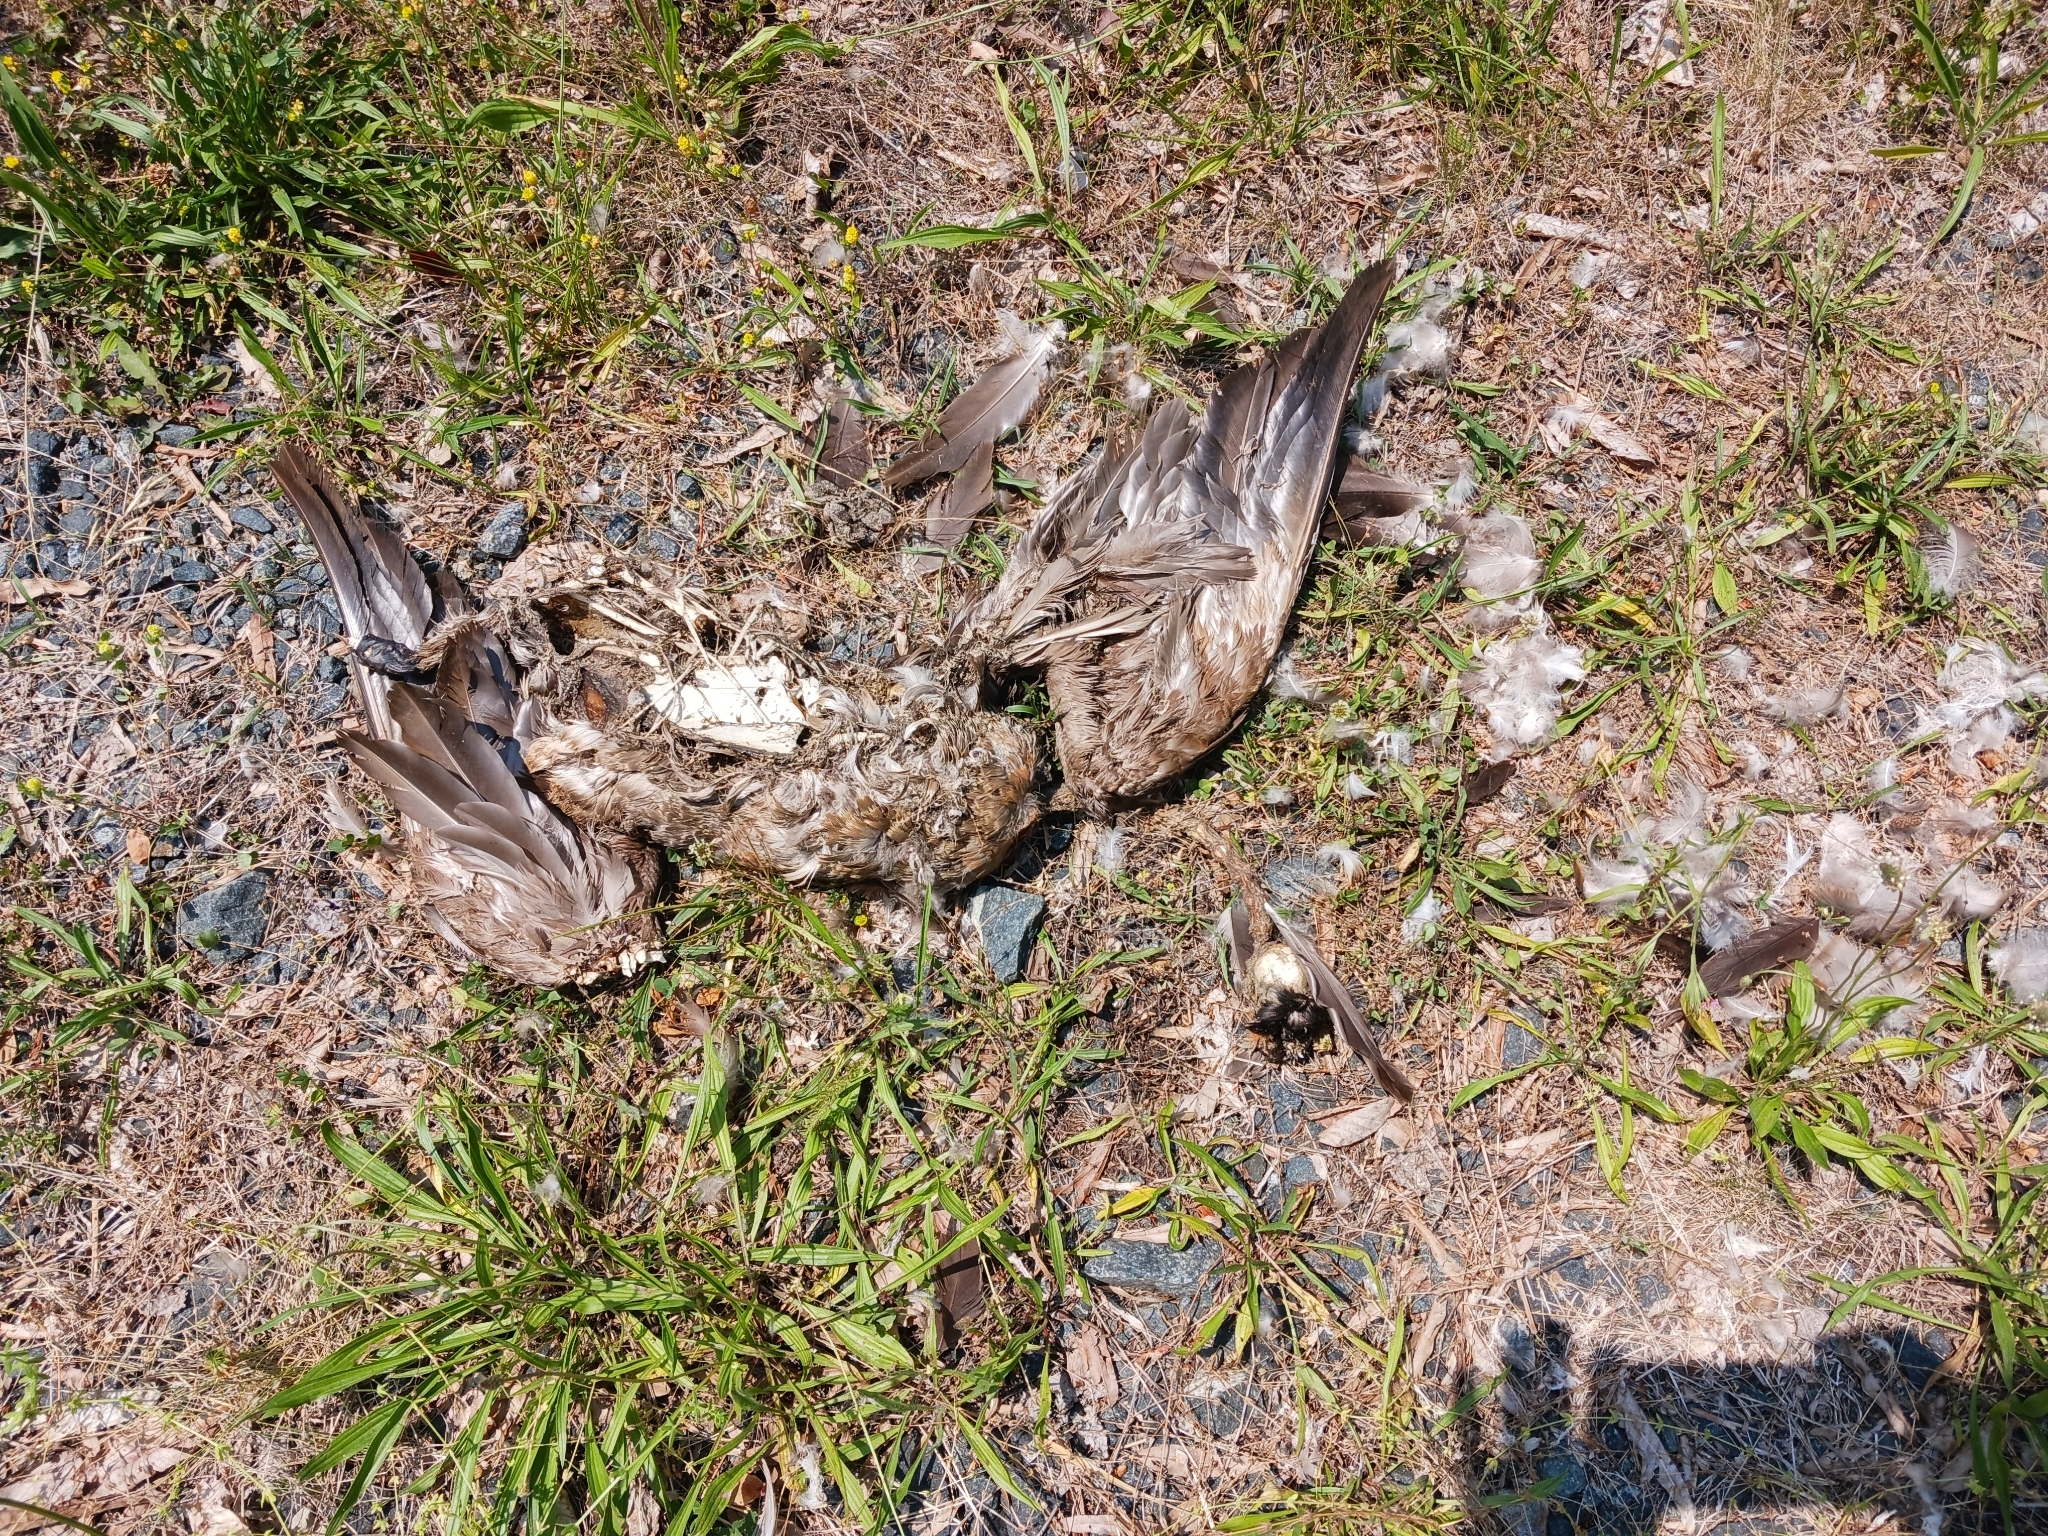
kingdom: Animalia
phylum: Chordata
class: Aves
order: Anseriformes
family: Anatidae
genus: Branta
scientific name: Branta canadensis
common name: Canada goose
